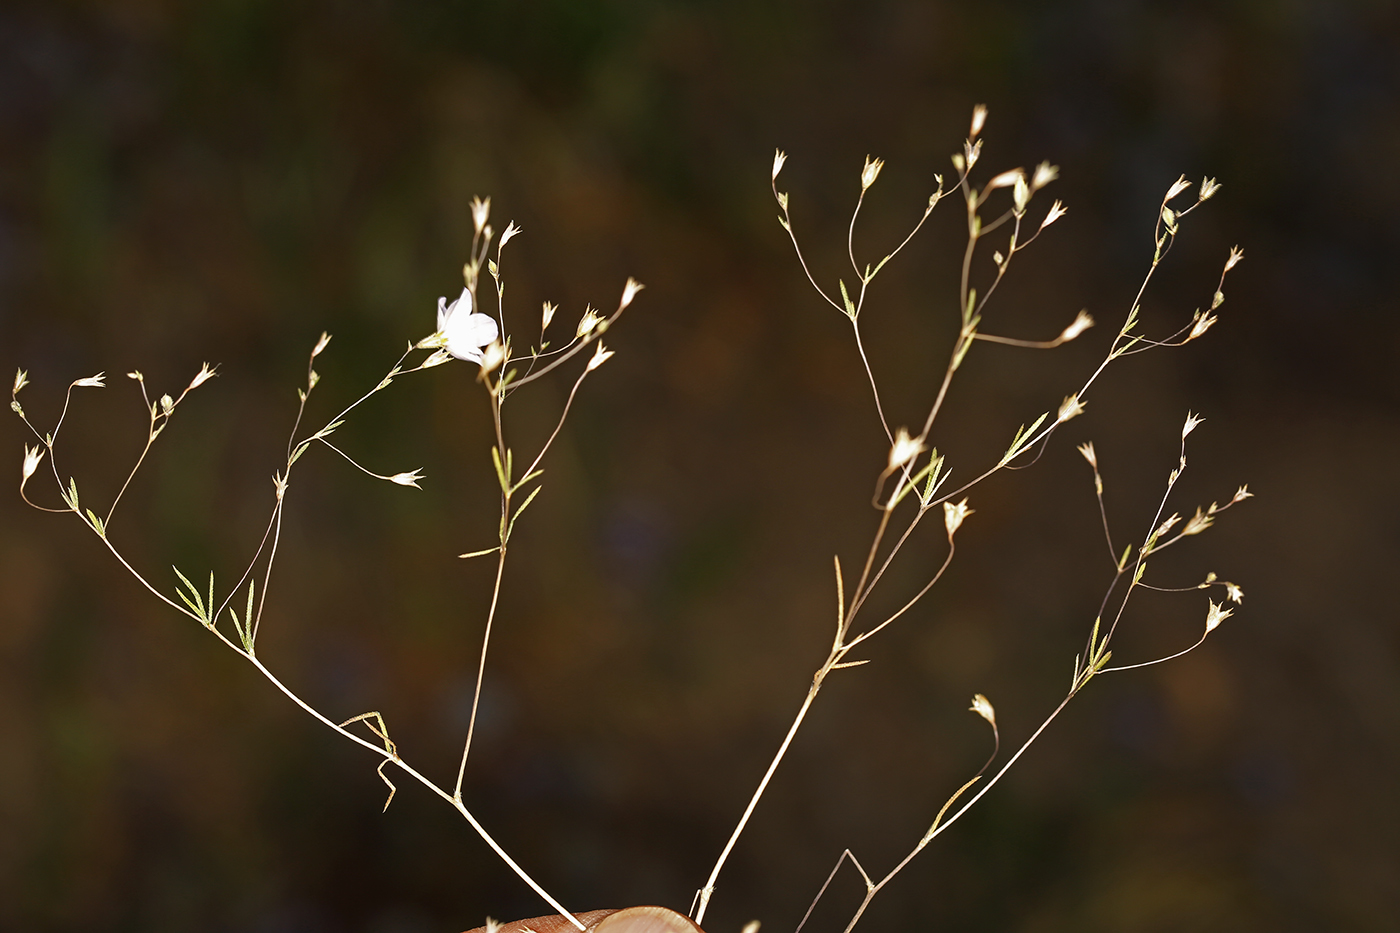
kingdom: Plantae
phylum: Tracheophyta
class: Magnoliopsida
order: Ericales
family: Polemoniaceae
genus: Leptosiphon
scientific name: Leptosiphon liniflorus
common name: Narrowflower flaxflower
